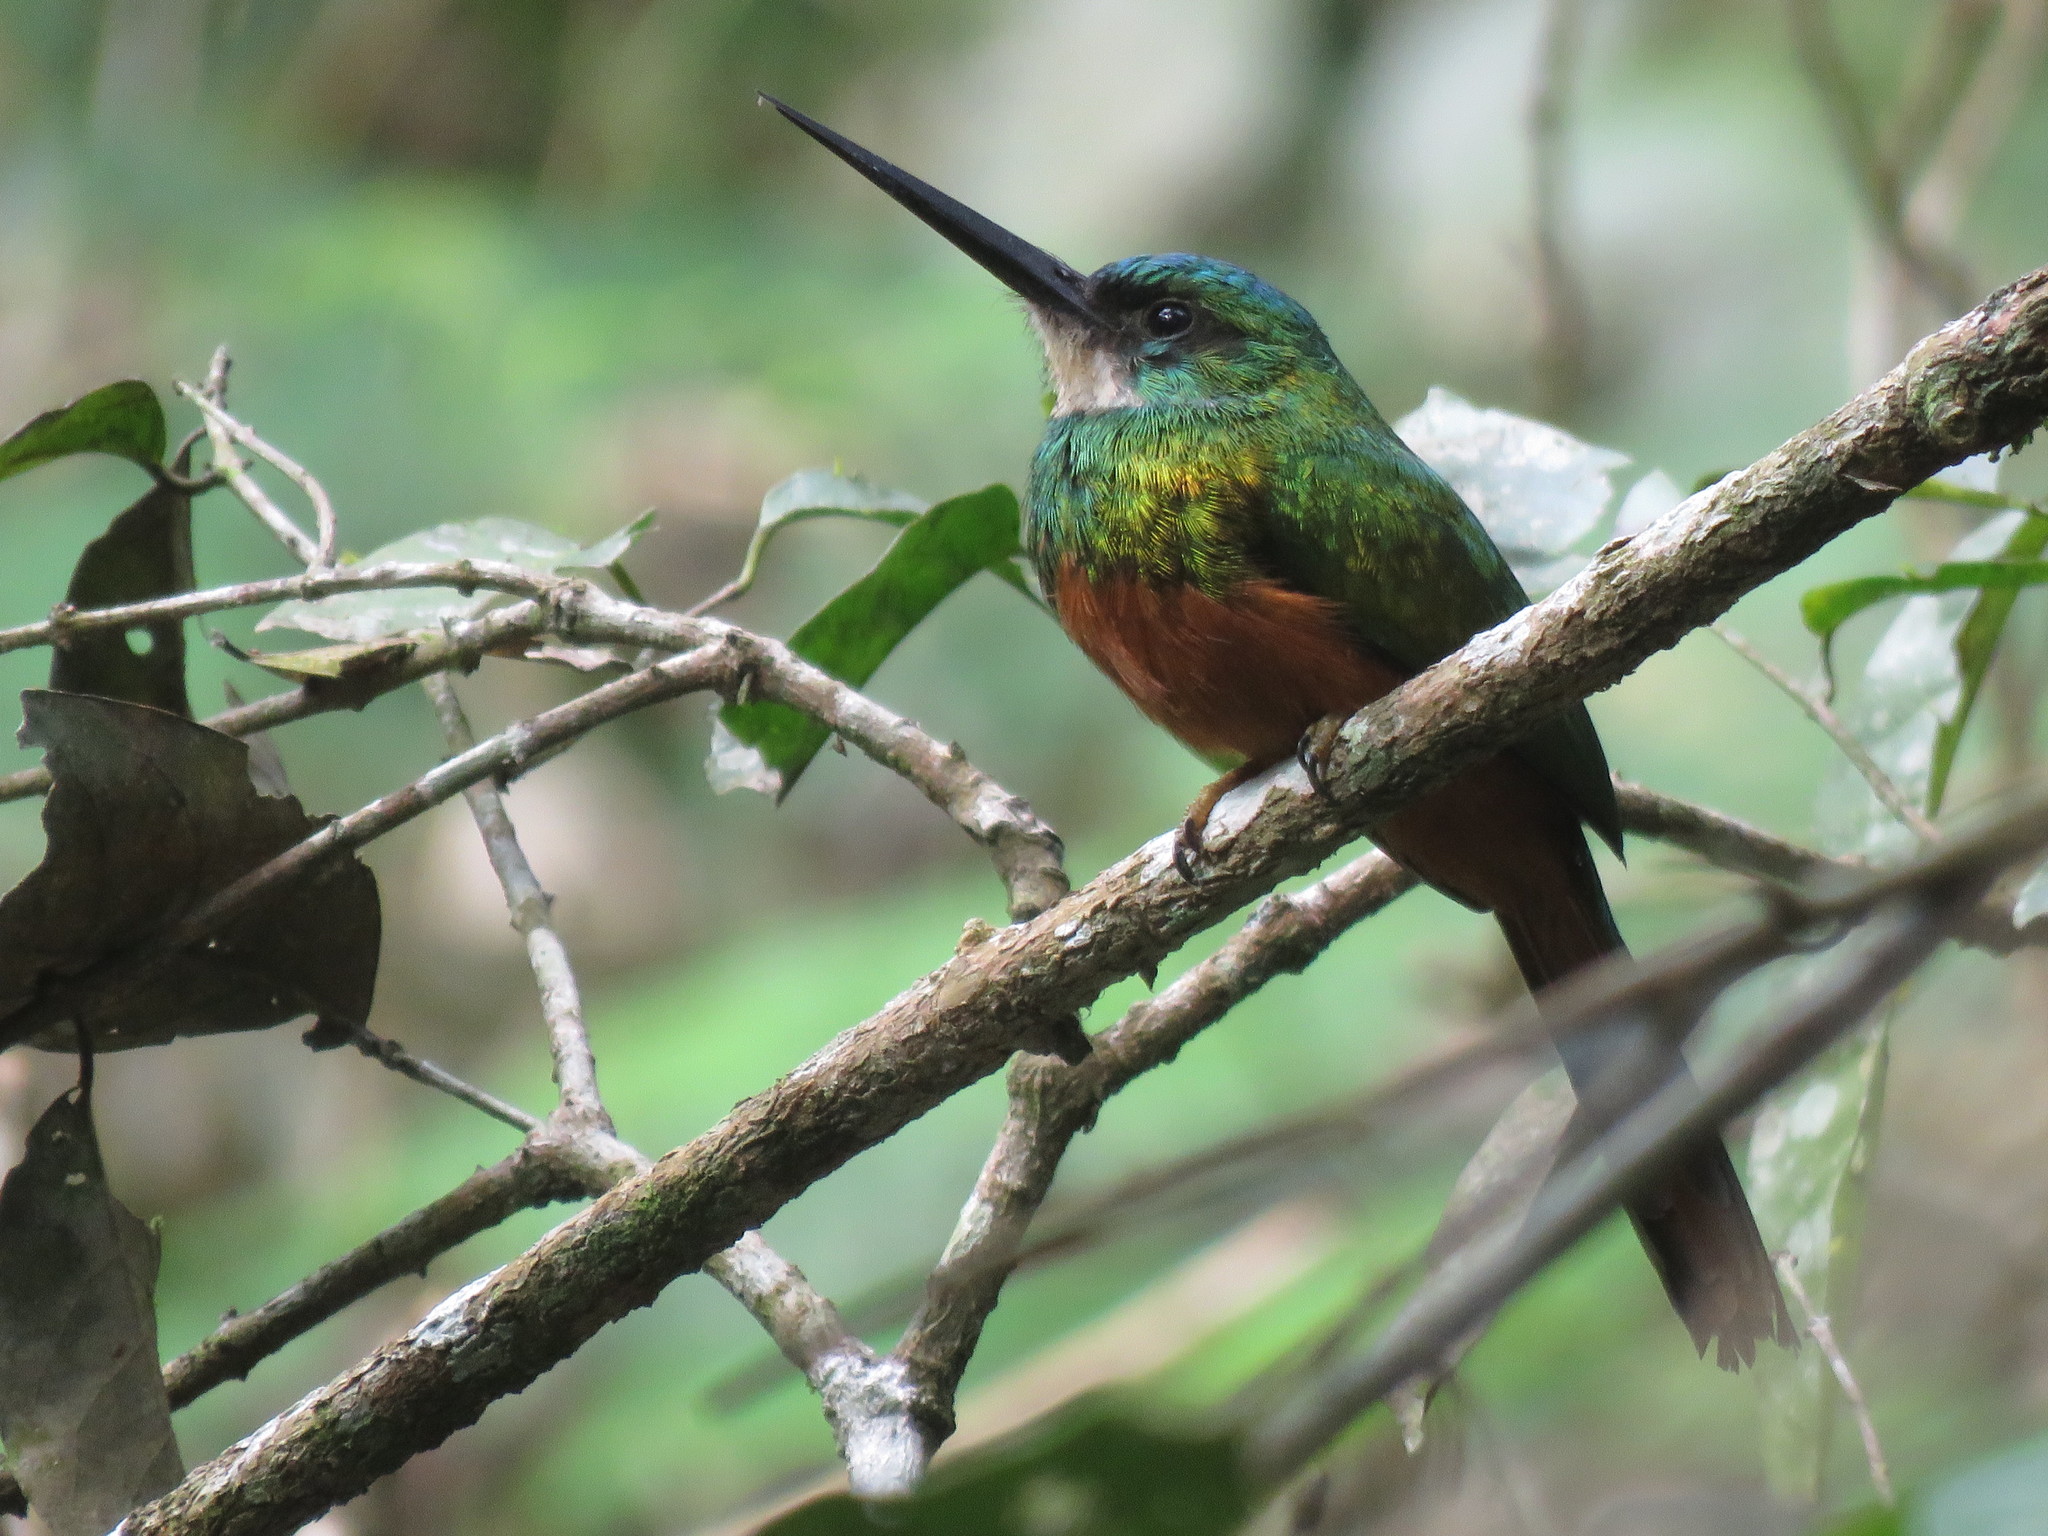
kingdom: Animalia
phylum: Chordata
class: Aves
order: Piciformes
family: Galbulidae
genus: Galbula
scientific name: Galbula ruficauda
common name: Rufous-tailed jacamar
